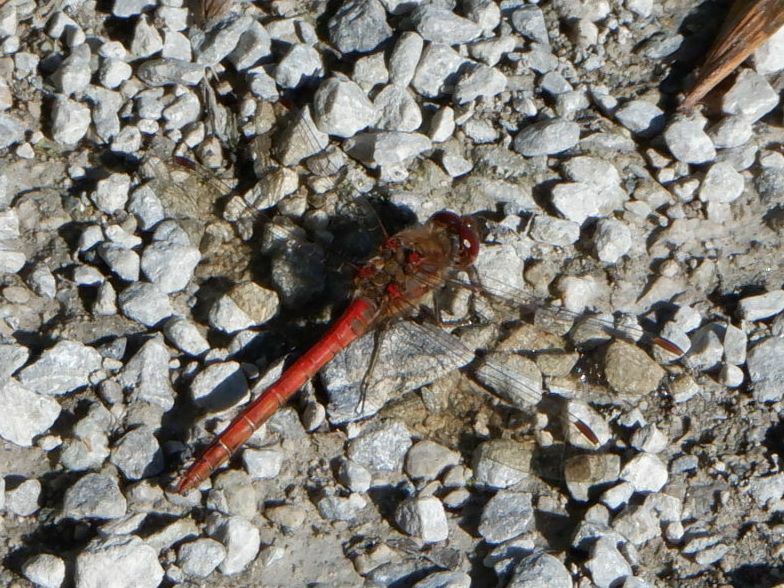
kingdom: Animalia
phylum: Arthropoda
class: Insecta
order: Odonata
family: Libellulidae
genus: Sympetrum
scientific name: Sympetrum striolatum
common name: Common darter
